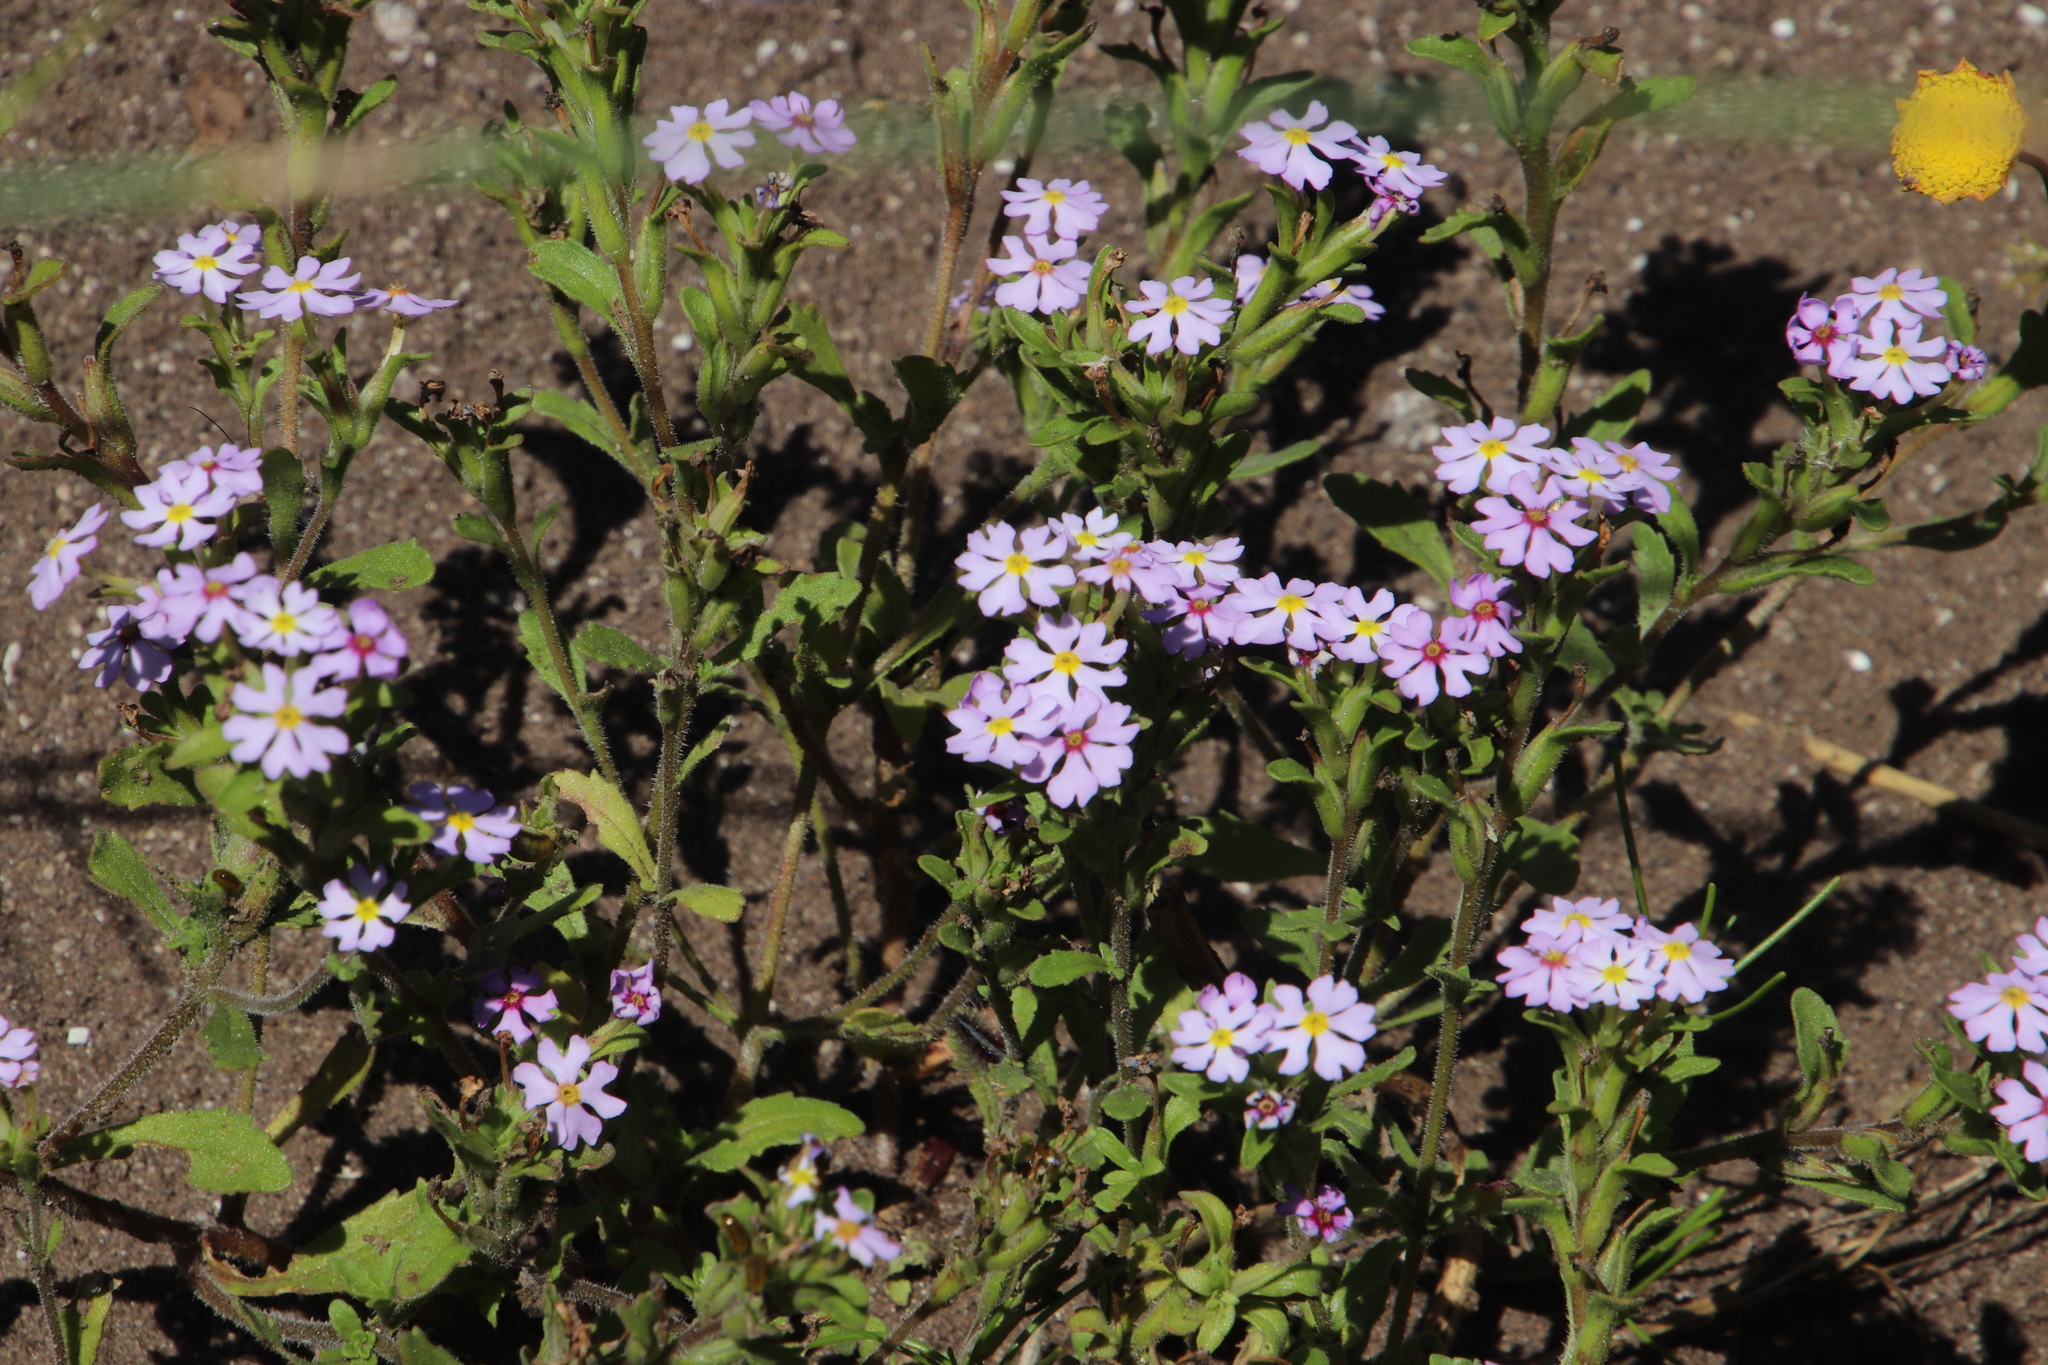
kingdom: Plantae
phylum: Tracheophyta
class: Magnoliopsida
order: Lamiales
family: Scrophulariaceae
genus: Zaluzianskya
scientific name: Zaluzianskya villosa
